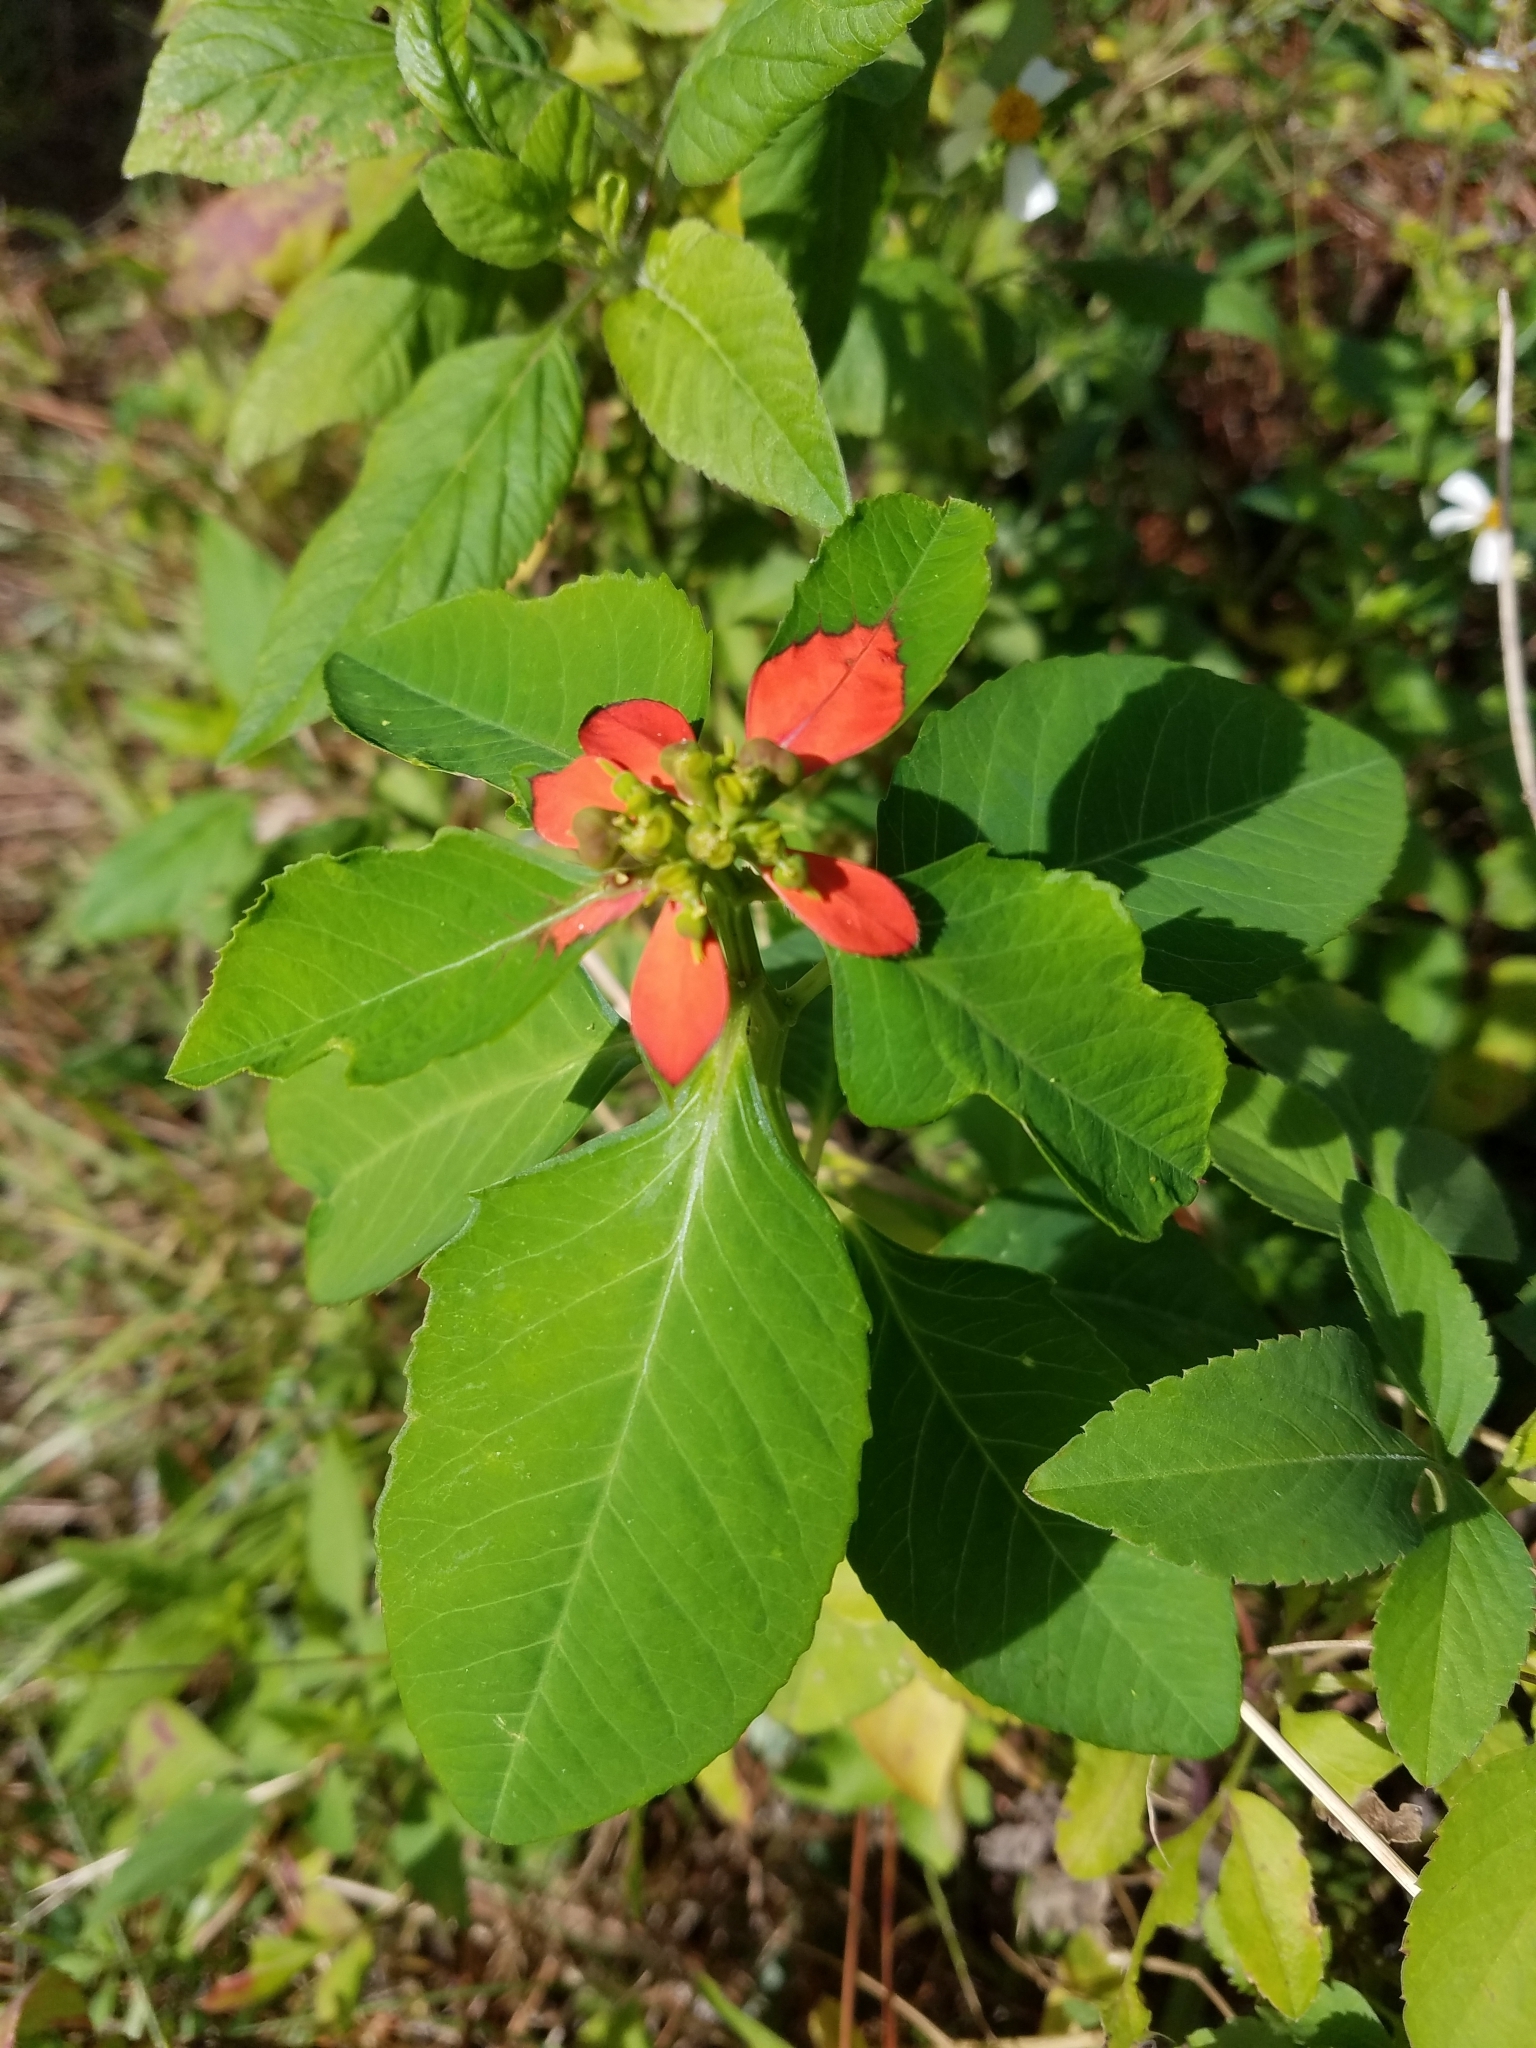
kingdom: Plantae
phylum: Tracheophyta
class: Magnoliopsida
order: Malpighiales
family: Euphorbiaceae
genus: Euphorbia
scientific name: Euphorbia heterophylla
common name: Mexican fireplant
